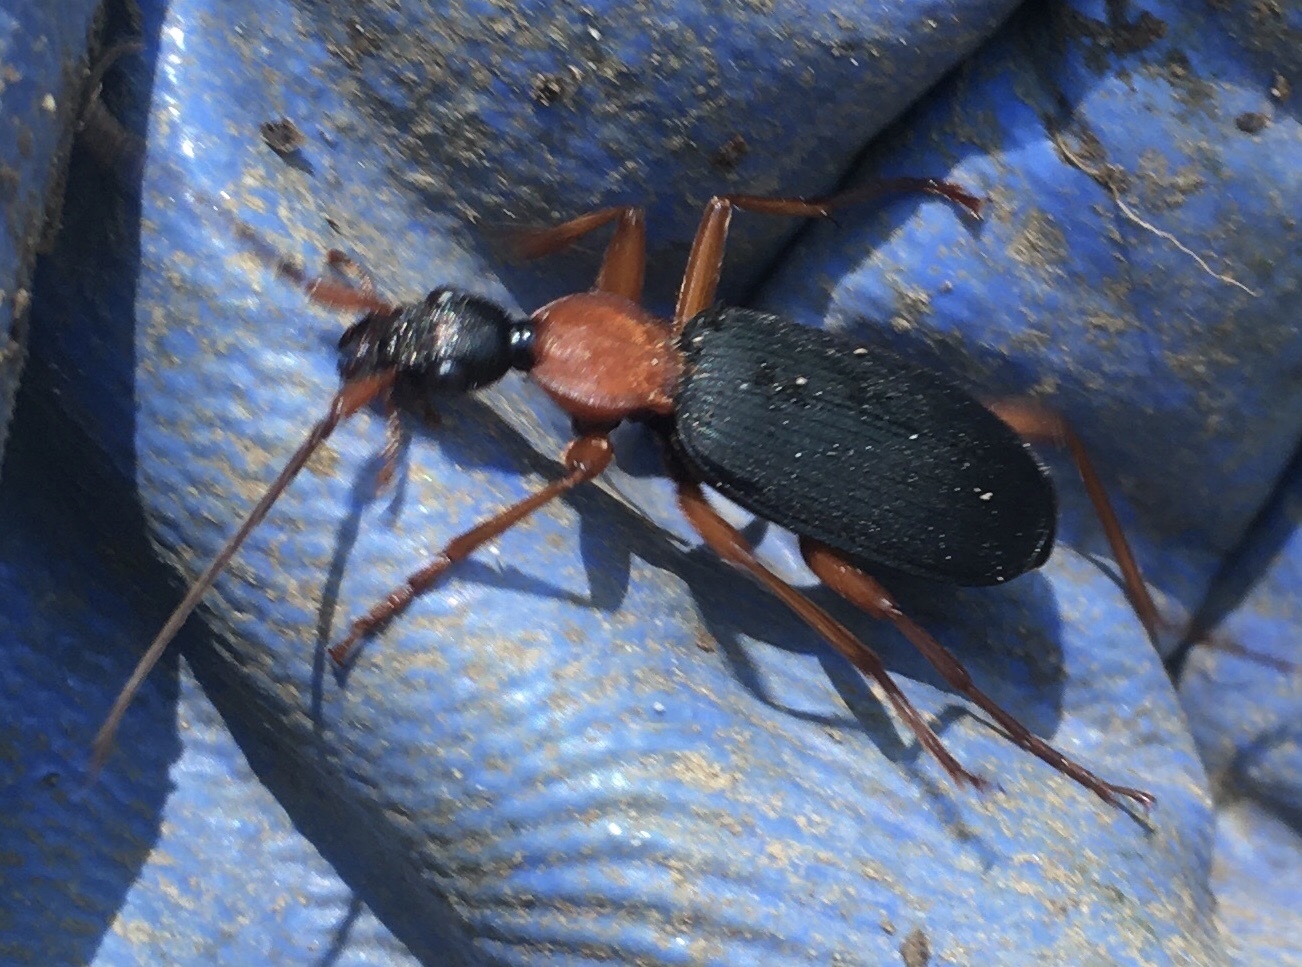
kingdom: Animalia
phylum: Arthropoda
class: Insecta
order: Coleoptera
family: Carabidae
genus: Galerita
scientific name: Galerita bicolor
